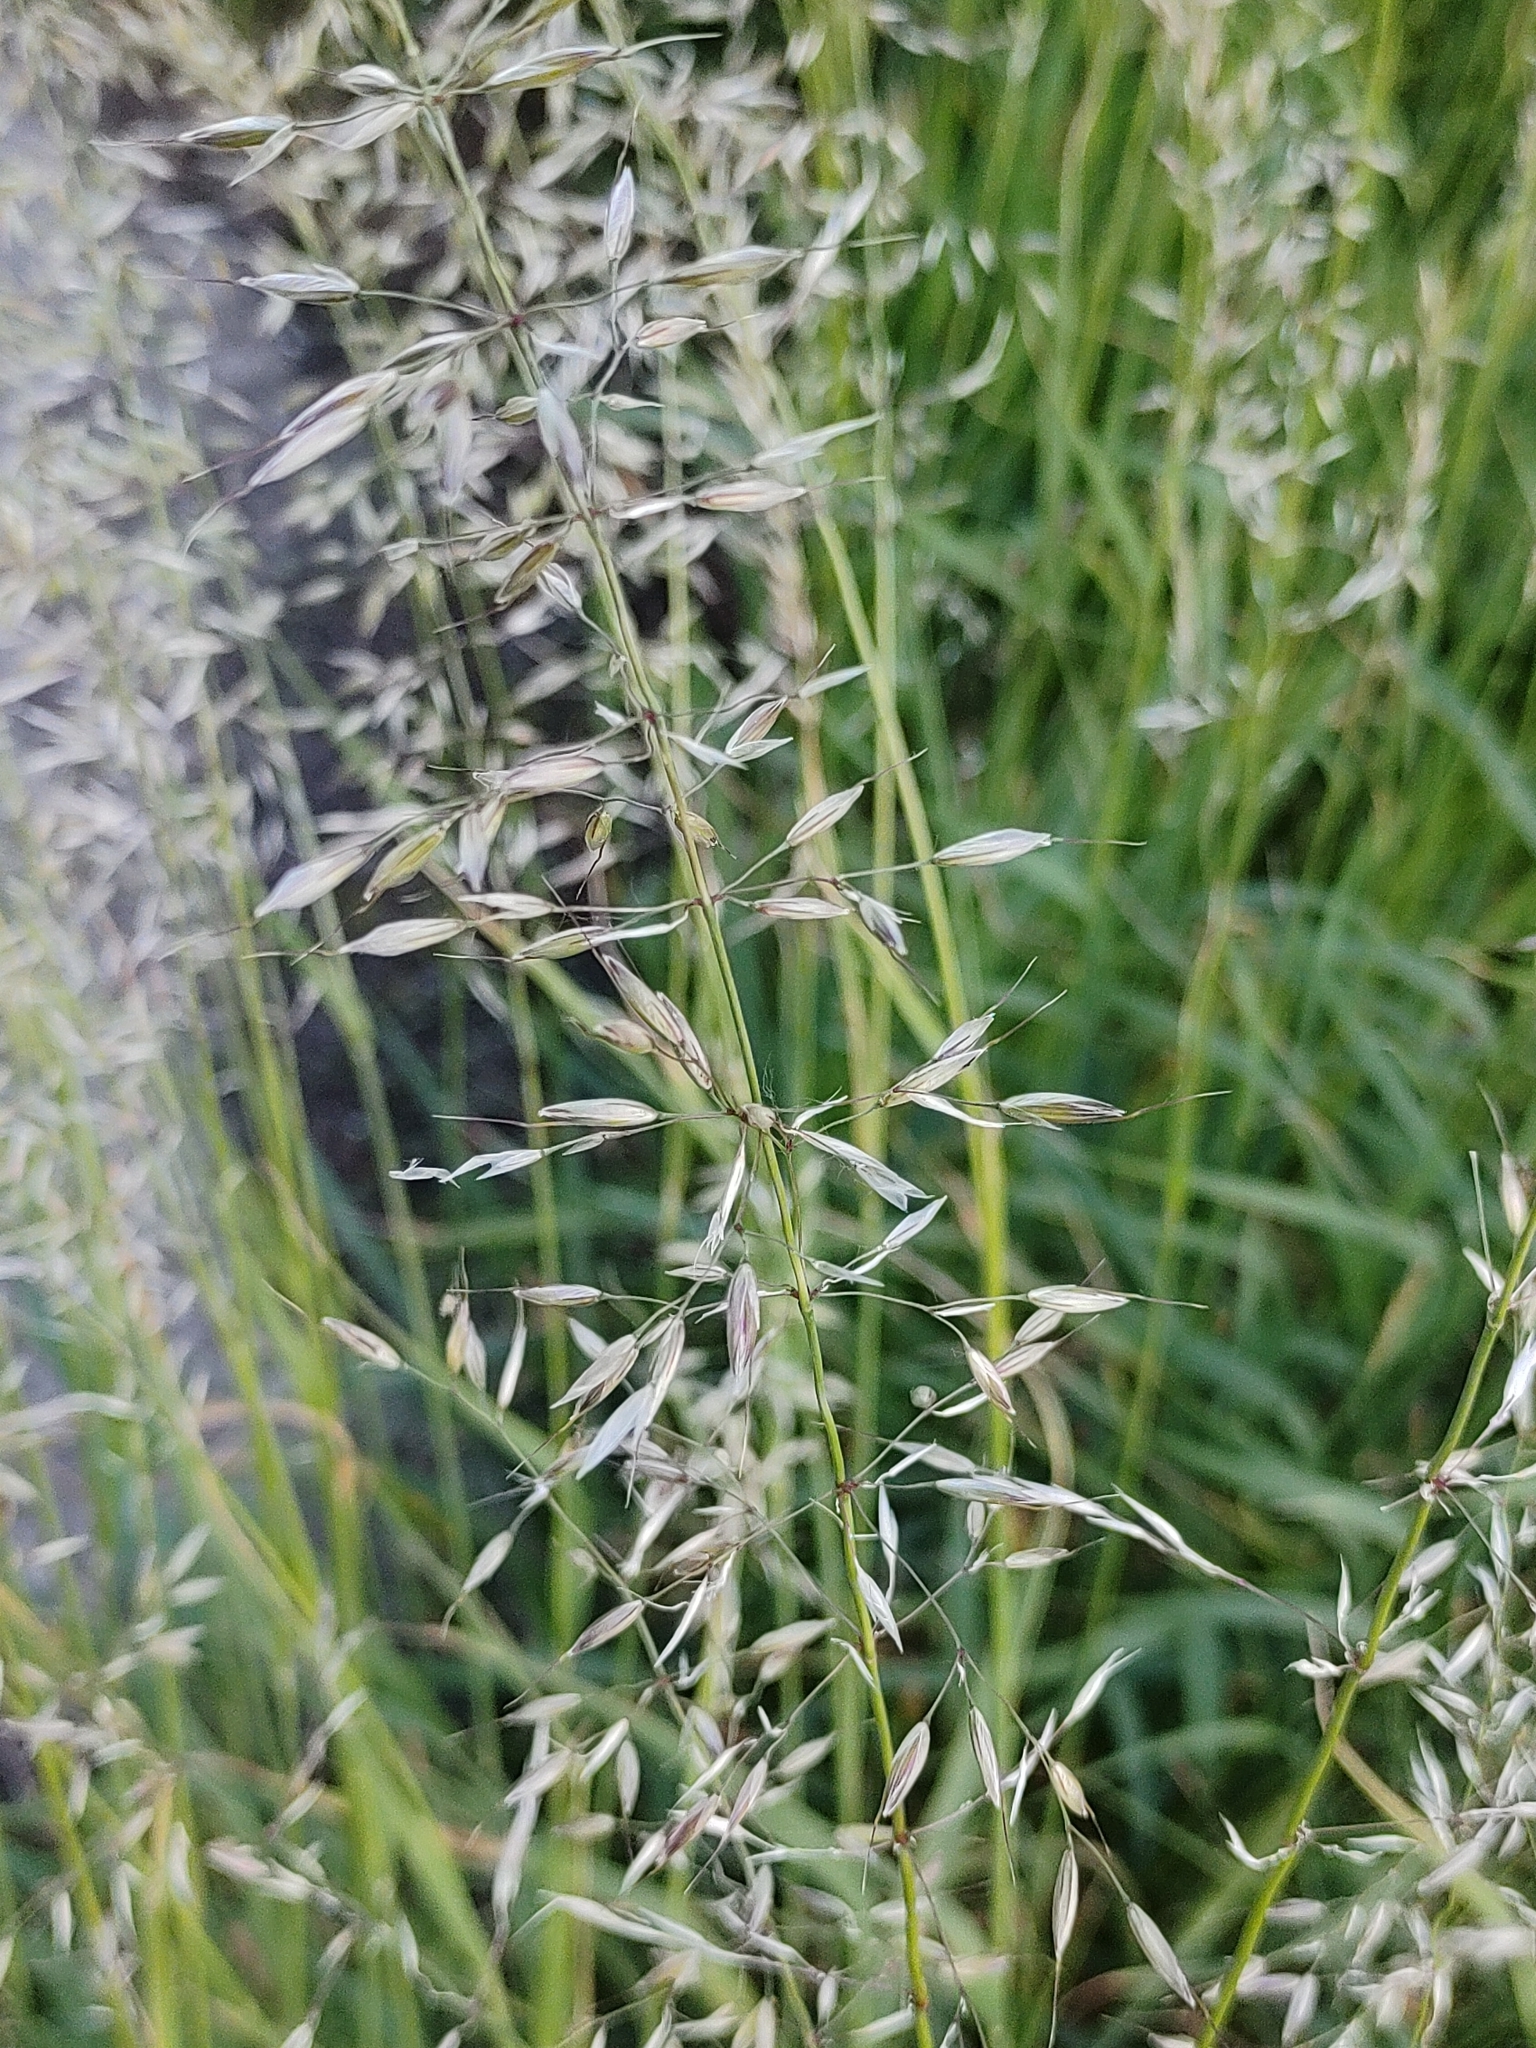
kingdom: Plantae
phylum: Tracheophyta
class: Liliopsida
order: Poales
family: Poaceae
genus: Arrhenatherum
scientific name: Arrhenatherum elatius
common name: Tall oatgrass
